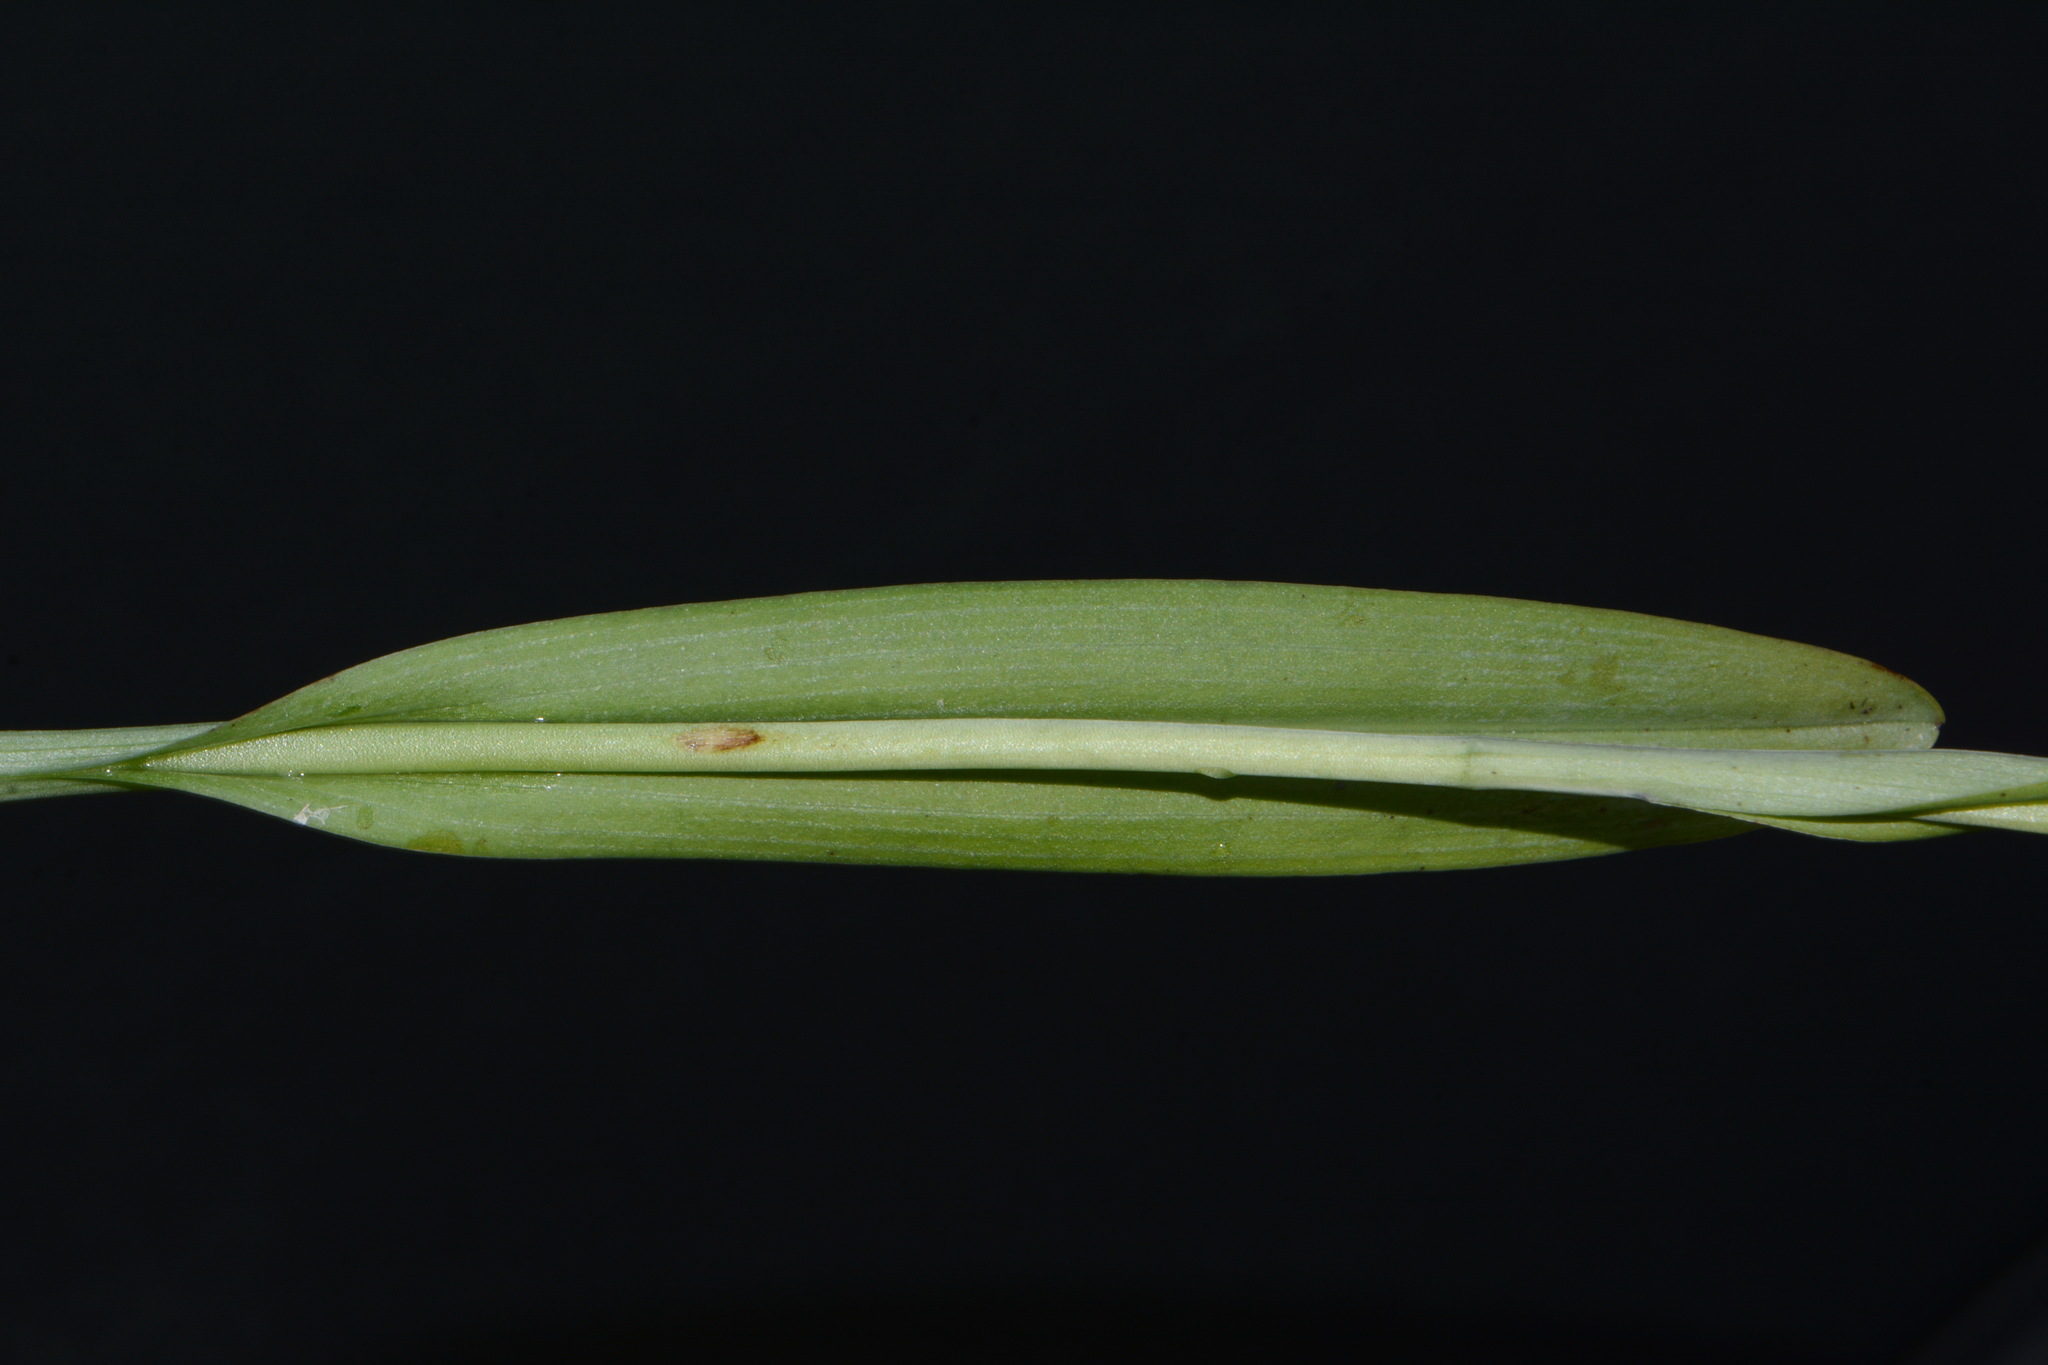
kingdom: Plantae
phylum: Tracheophyta
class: Liliopsida
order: Asparagales
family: Orchidaceae
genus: Platanthera
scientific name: Platanthera lacera
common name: Green fringed orchid
